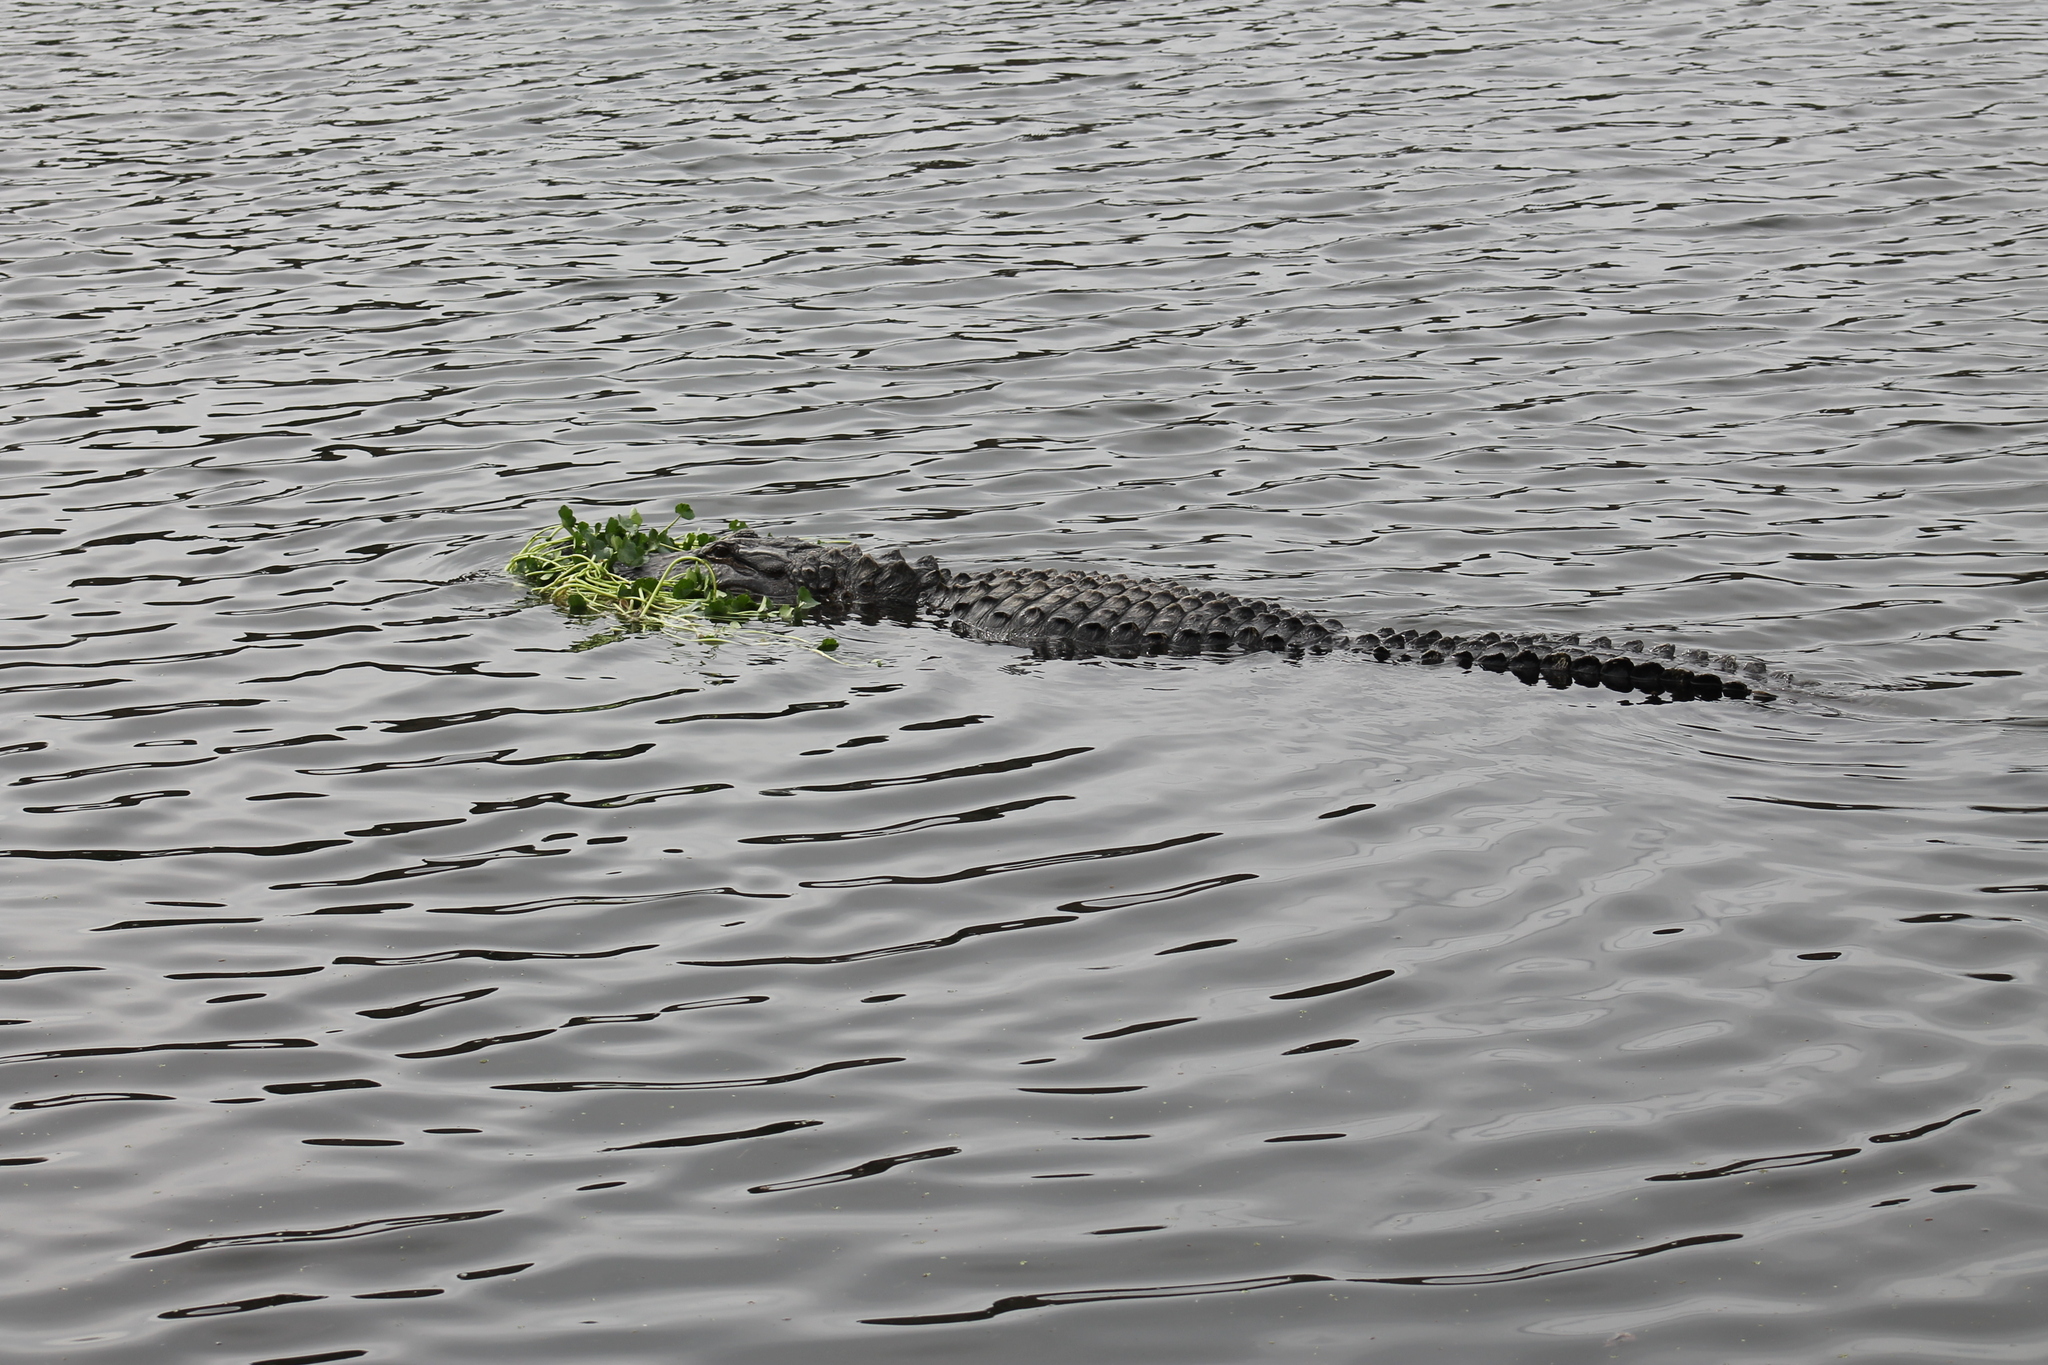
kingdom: Animalia
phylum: Chordata
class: Crocodylia
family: Alligatoridae
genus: Alligator
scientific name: Alligator mississippiensis
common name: American alligator
